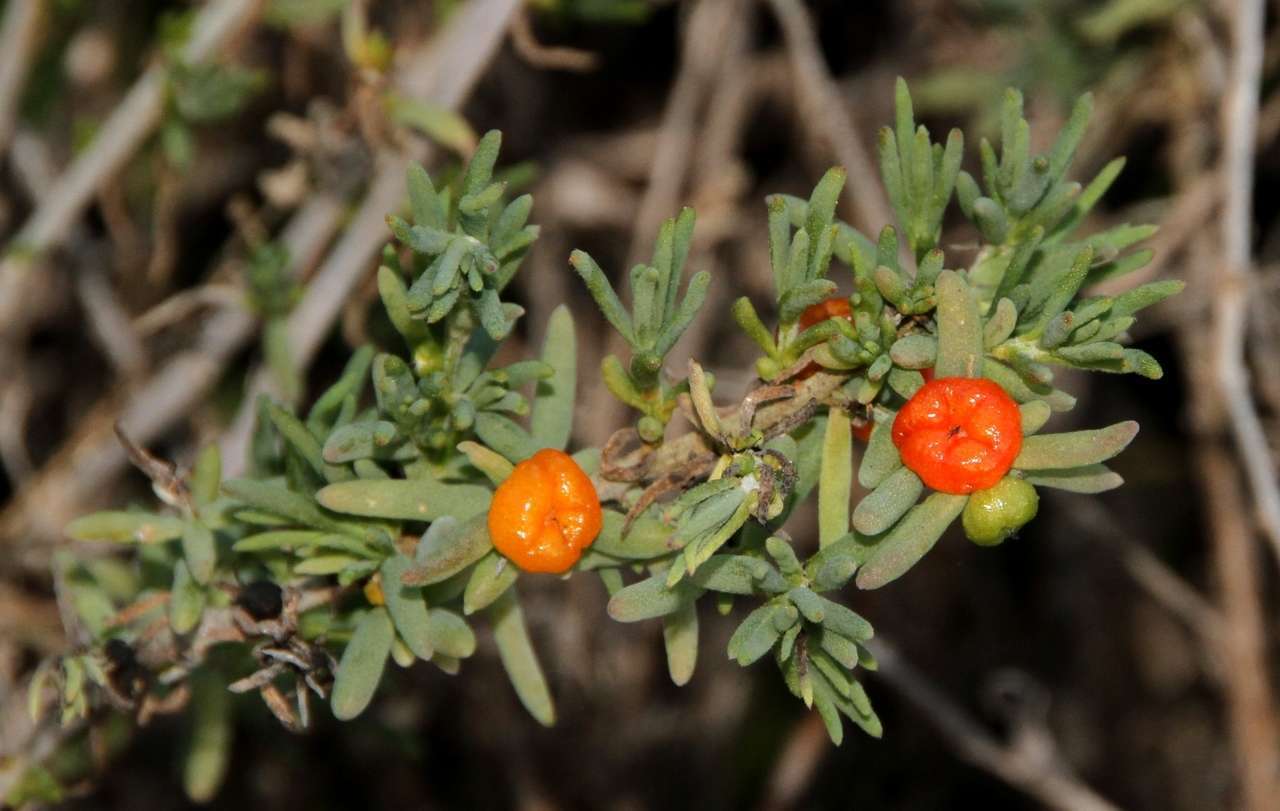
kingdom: Plantae
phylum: Tracheophyta
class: Magnoliopsida
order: Caryophyllales
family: Amaranthaceae
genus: Enchylaena
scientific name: Enchylaena tomentosa
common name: Ruby saltbush
